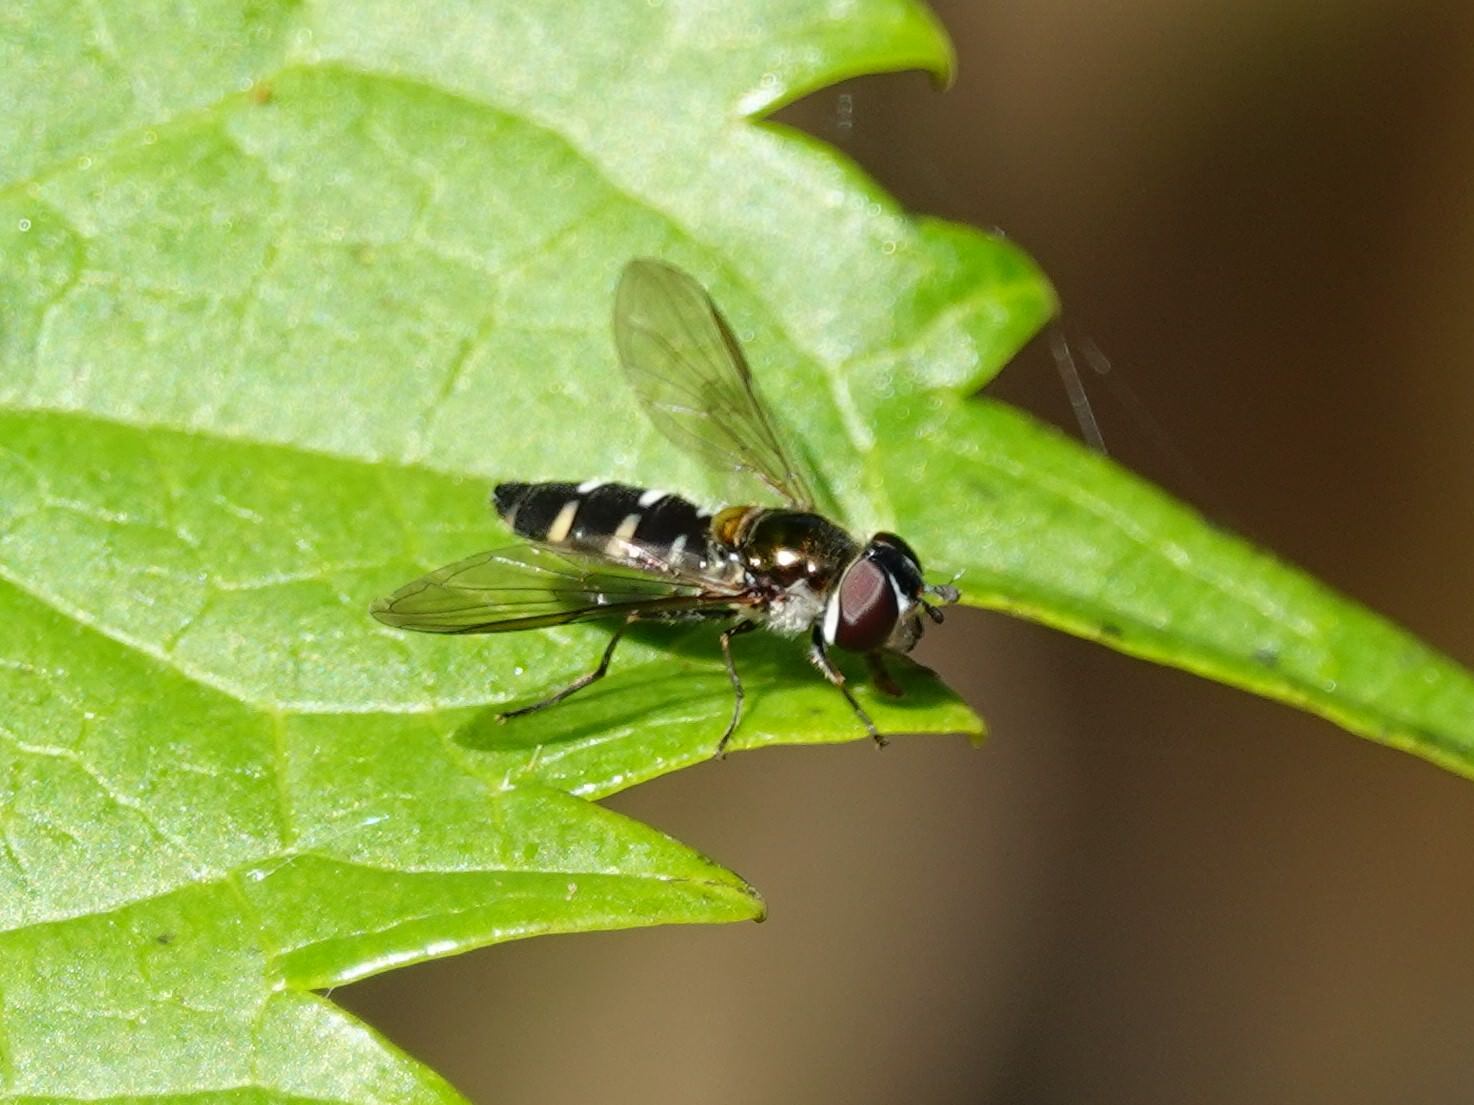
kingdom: Animalia
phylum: Arthropoda
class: Insecta
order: Diptera
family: Syrphidae
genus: Melangyna
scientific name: Melangyna novaezelandiae
